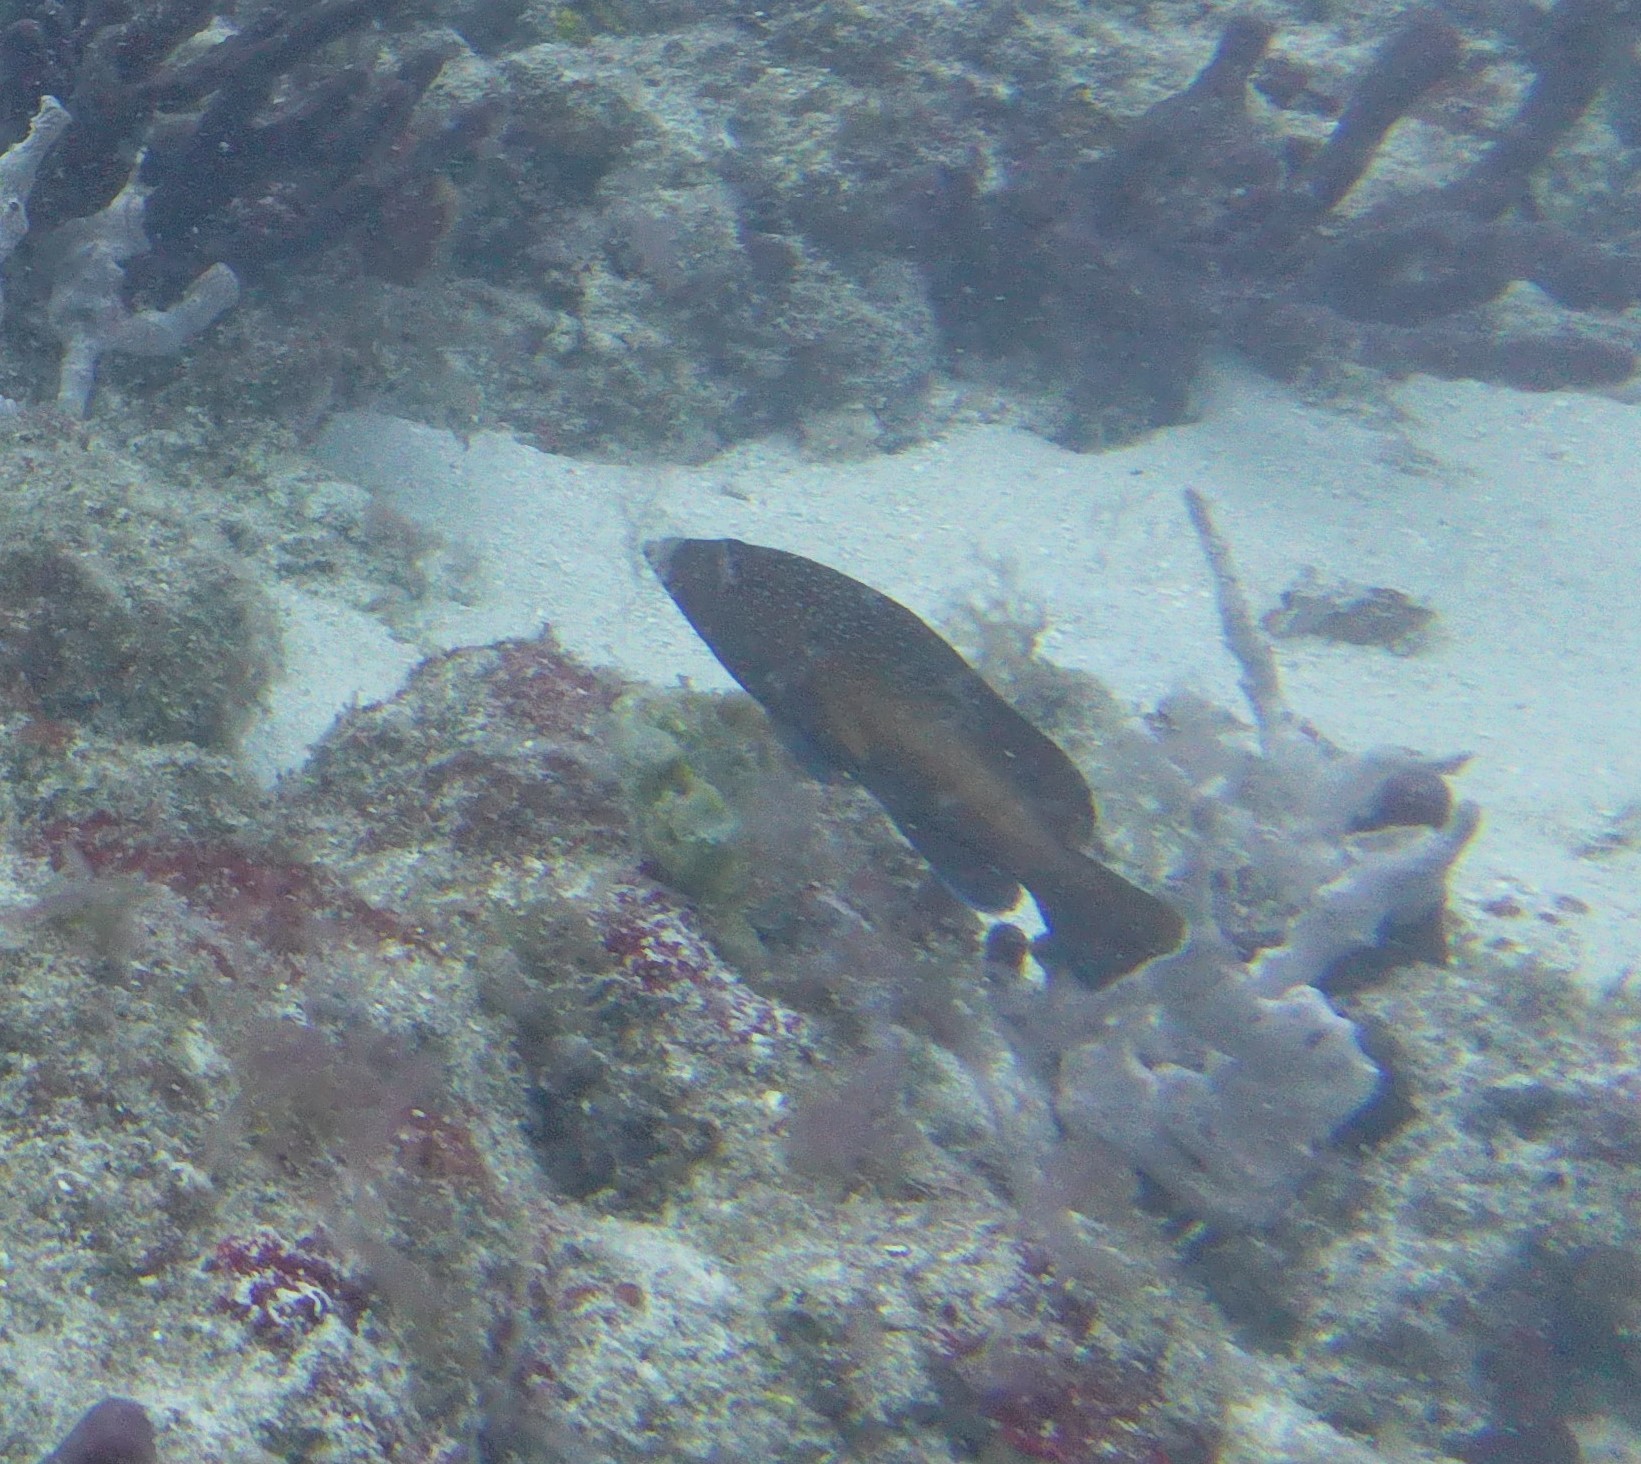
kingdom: Animalia
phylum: Chordata
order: Perciformes
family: Serranidae
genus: Cephalopholis
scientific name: Cephalopholis fulva
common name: Butterfish
